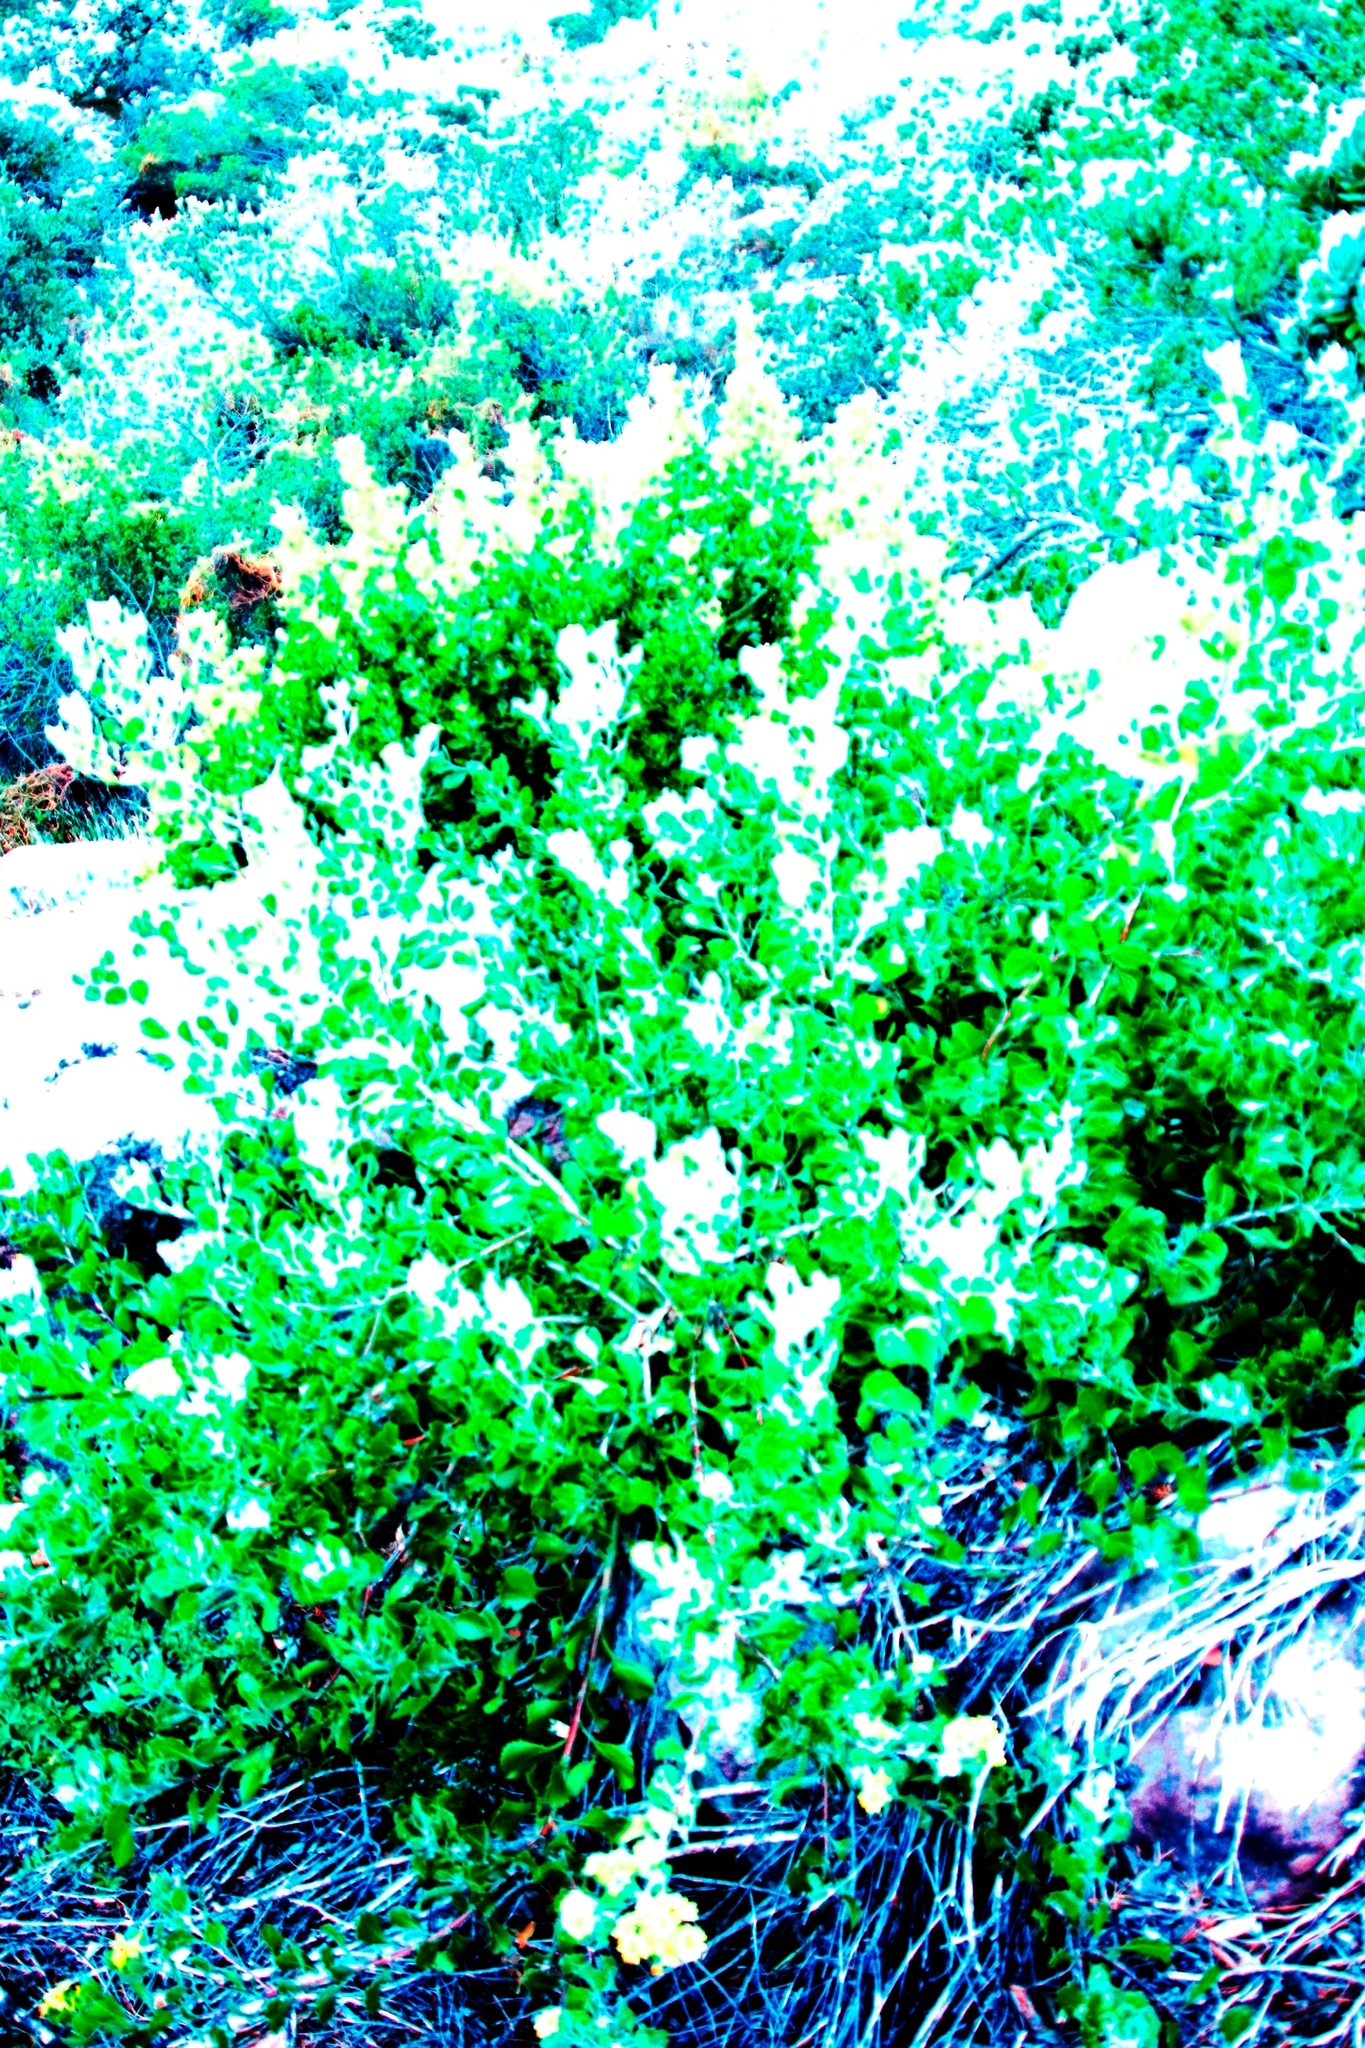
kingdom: Plantae
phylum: Tracheophyta
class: Magnoliopsida
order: Asterales
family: Asteraceae
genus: Osteospermum
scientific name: Osteospermum moniliferum
